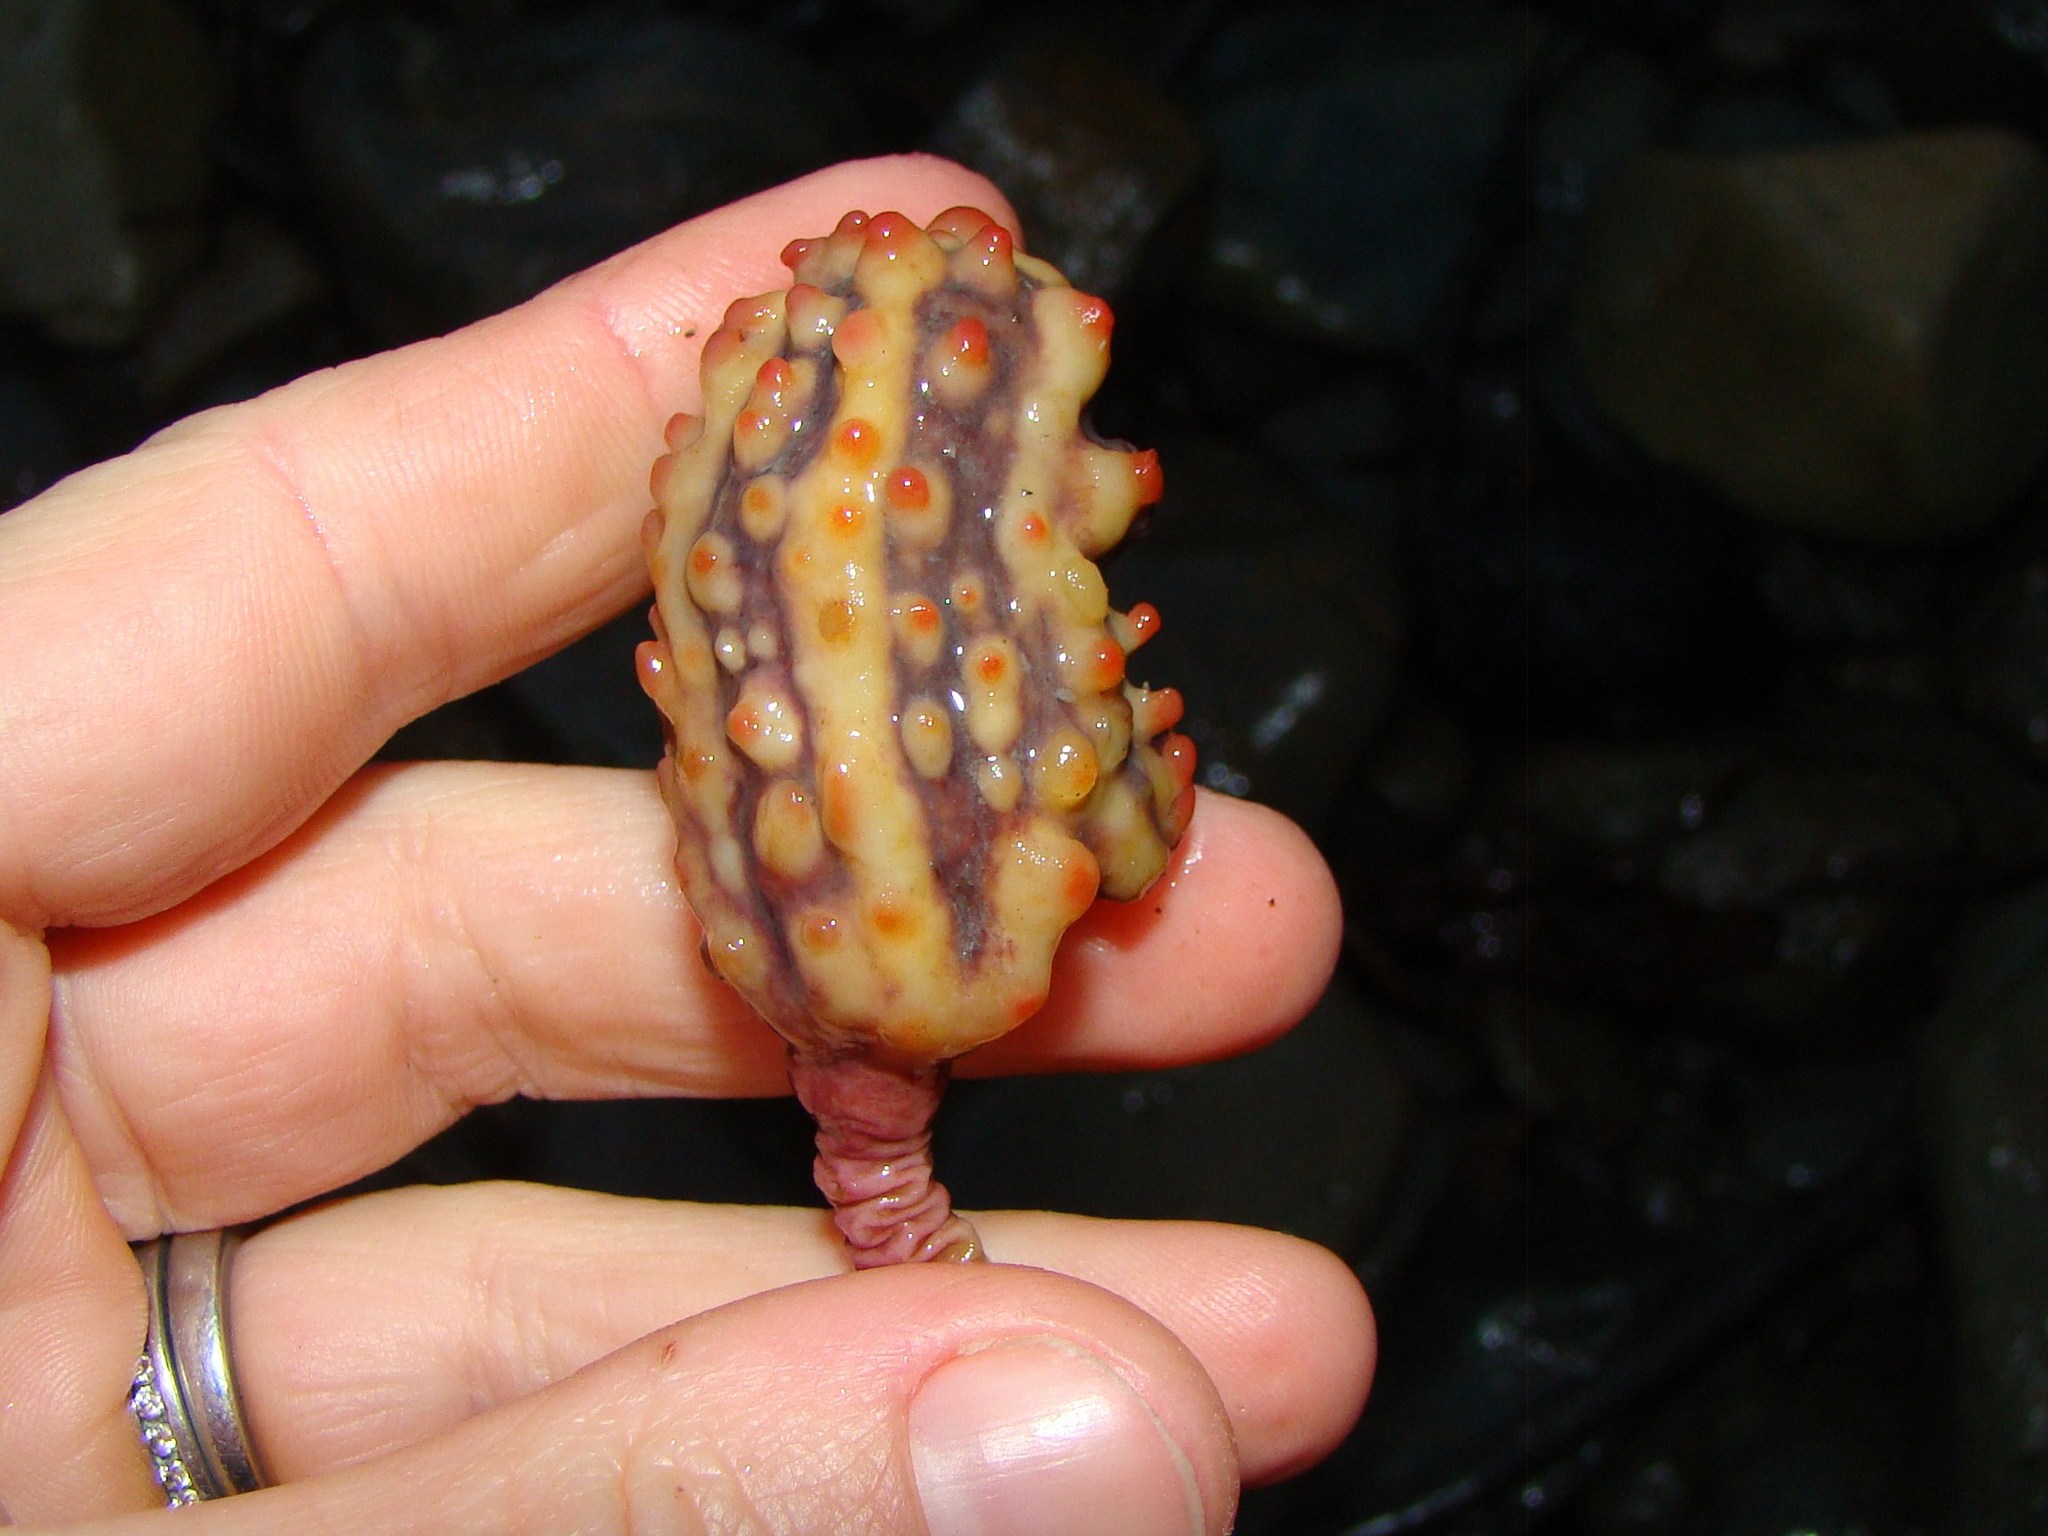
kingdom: Animalia
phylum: Chordata
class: Ascidiacea
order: Stolidobranchia
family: Pyuridae
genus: Pyura
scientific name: Pyura pachydermatina
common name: Sea tulip
